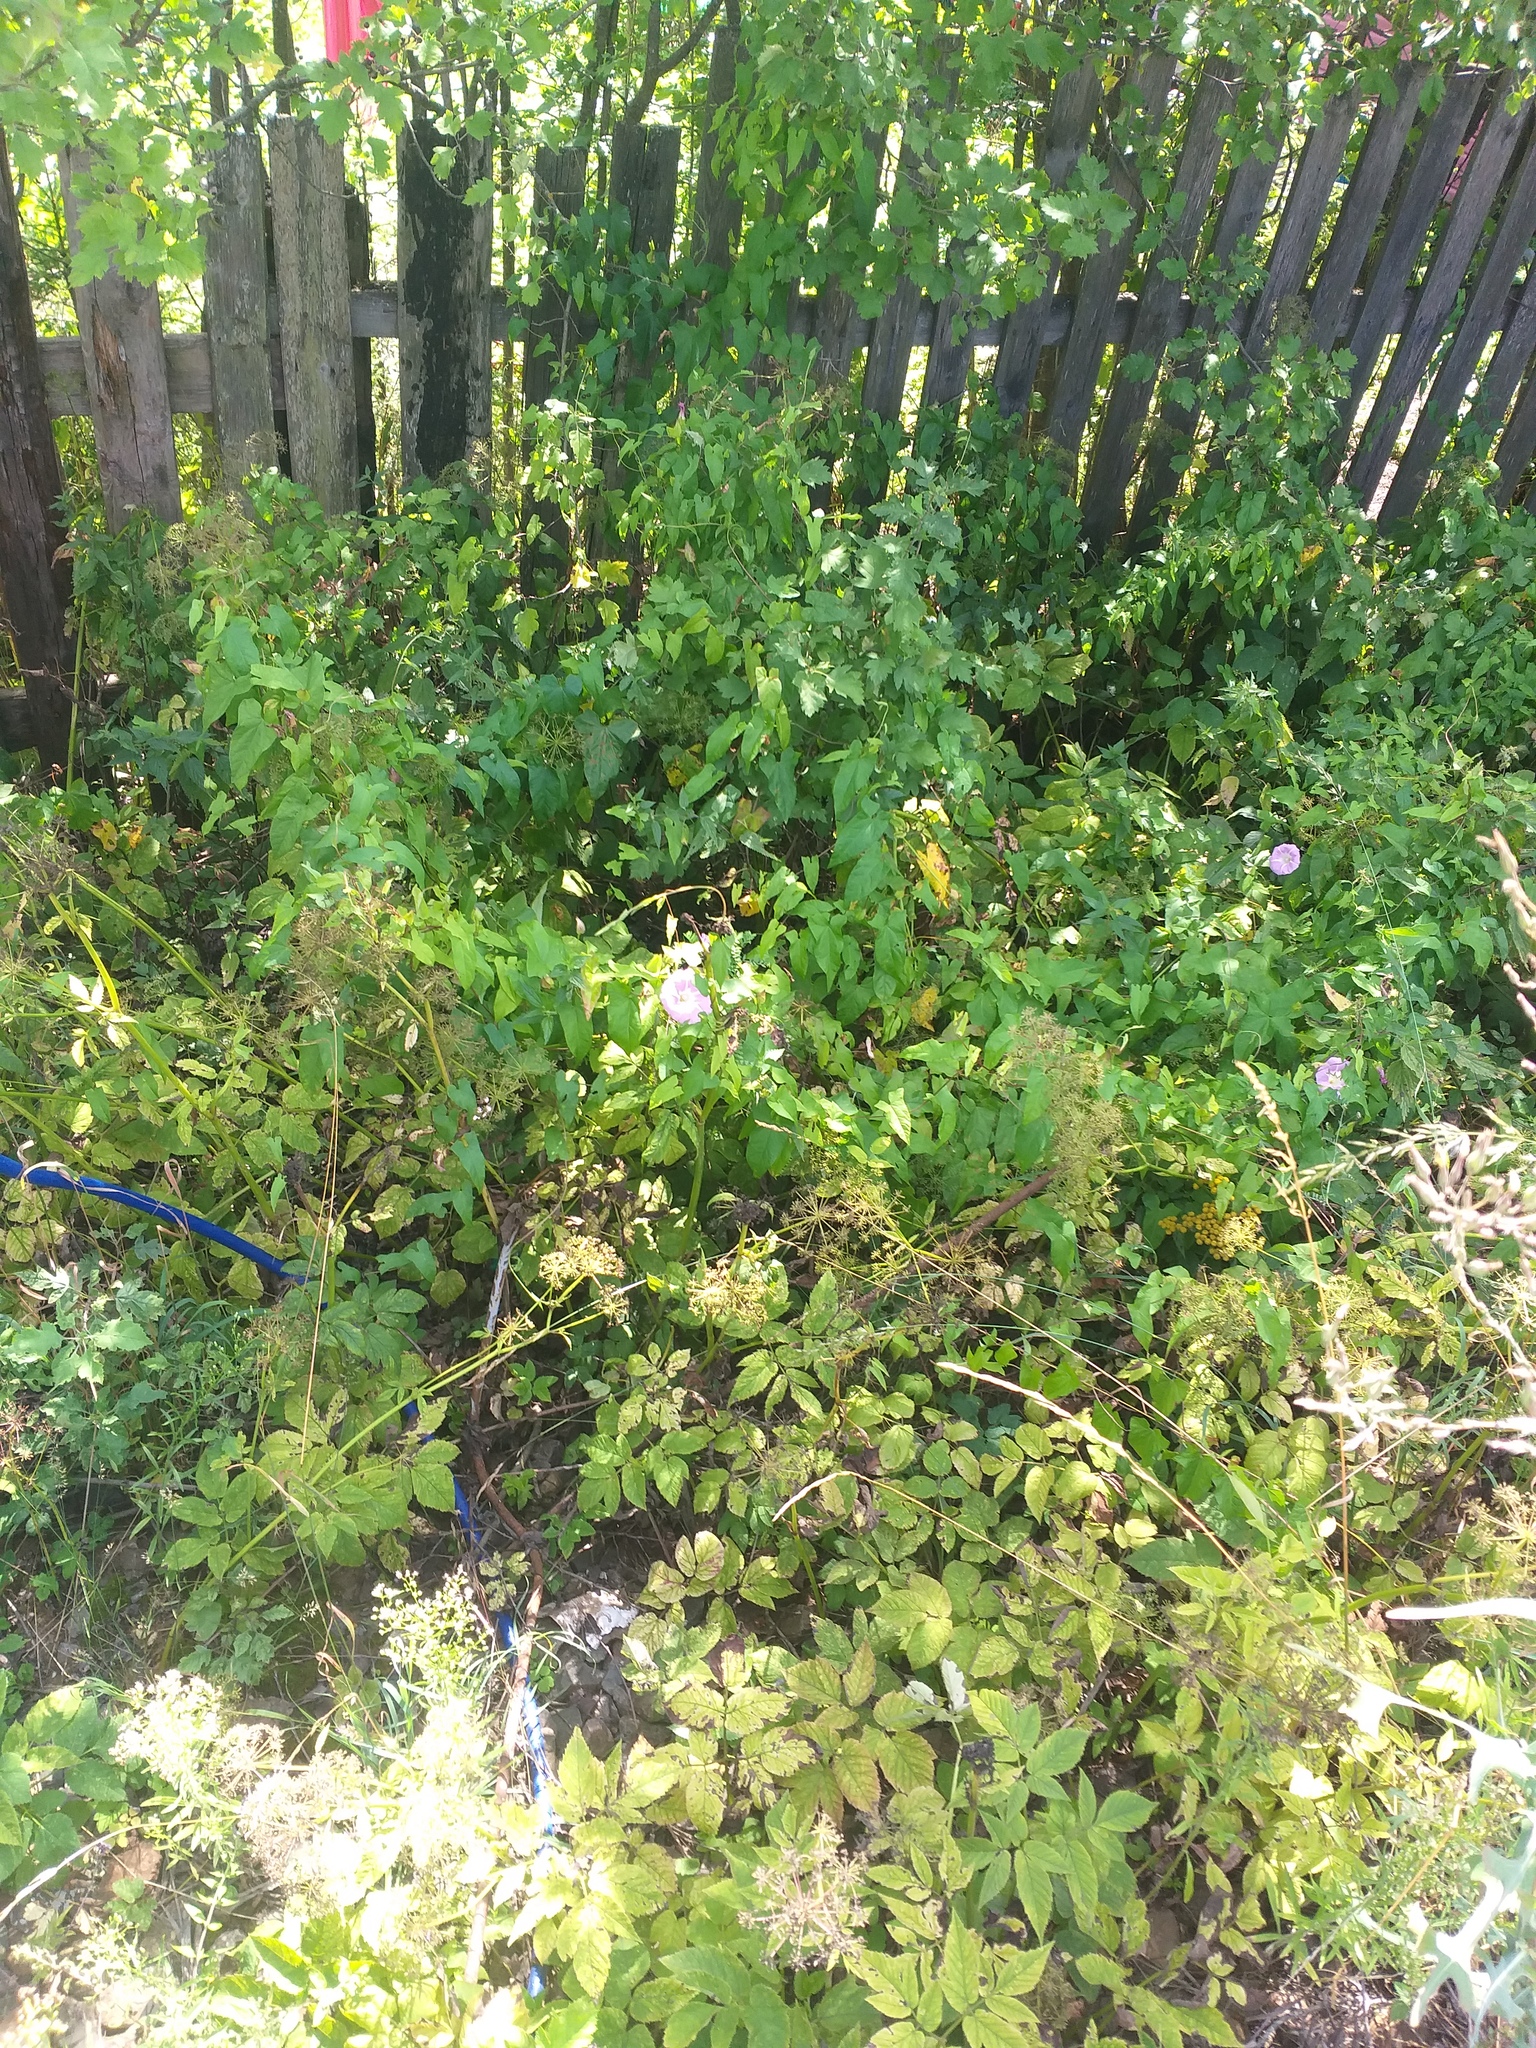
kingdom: Plantae
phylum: Tracheophyta
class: Magnoliopsida
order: Solanales
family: Convolvulaceae
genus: Calystegia
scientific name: Calystegia sepium
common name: Hedge bindweed
